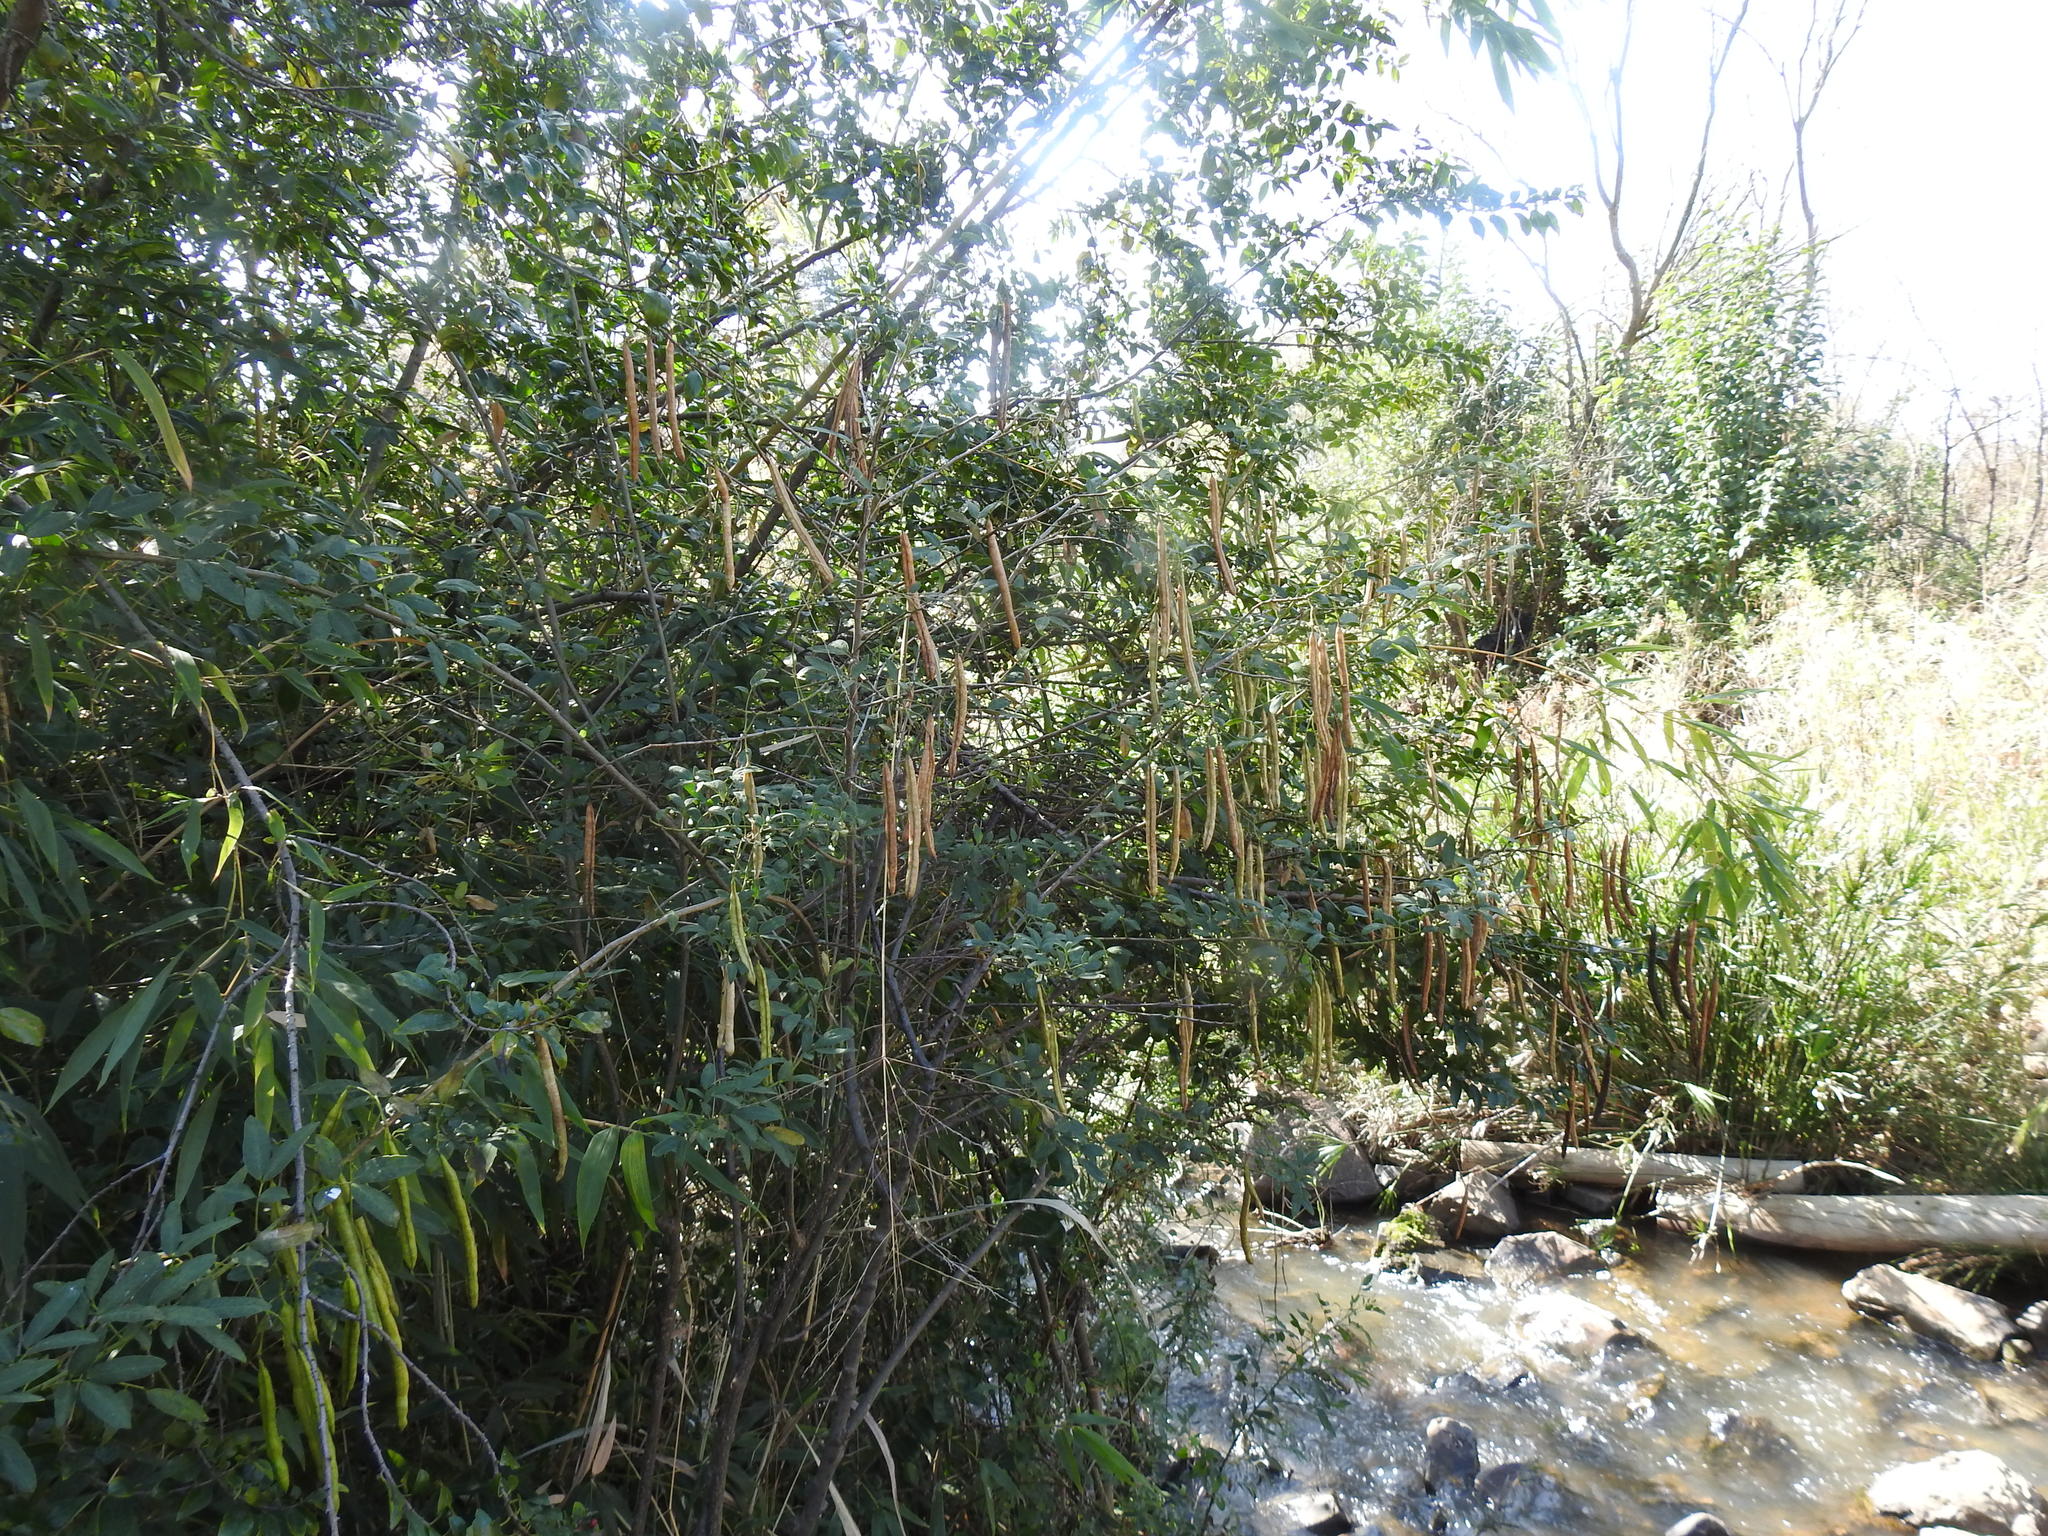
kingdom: Plantae
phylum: Tracheophyta
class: Magnoliopsida
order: Fabales
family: Fabaceae
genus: Senna
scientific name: Senna corymbosa
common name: Argentine senna
